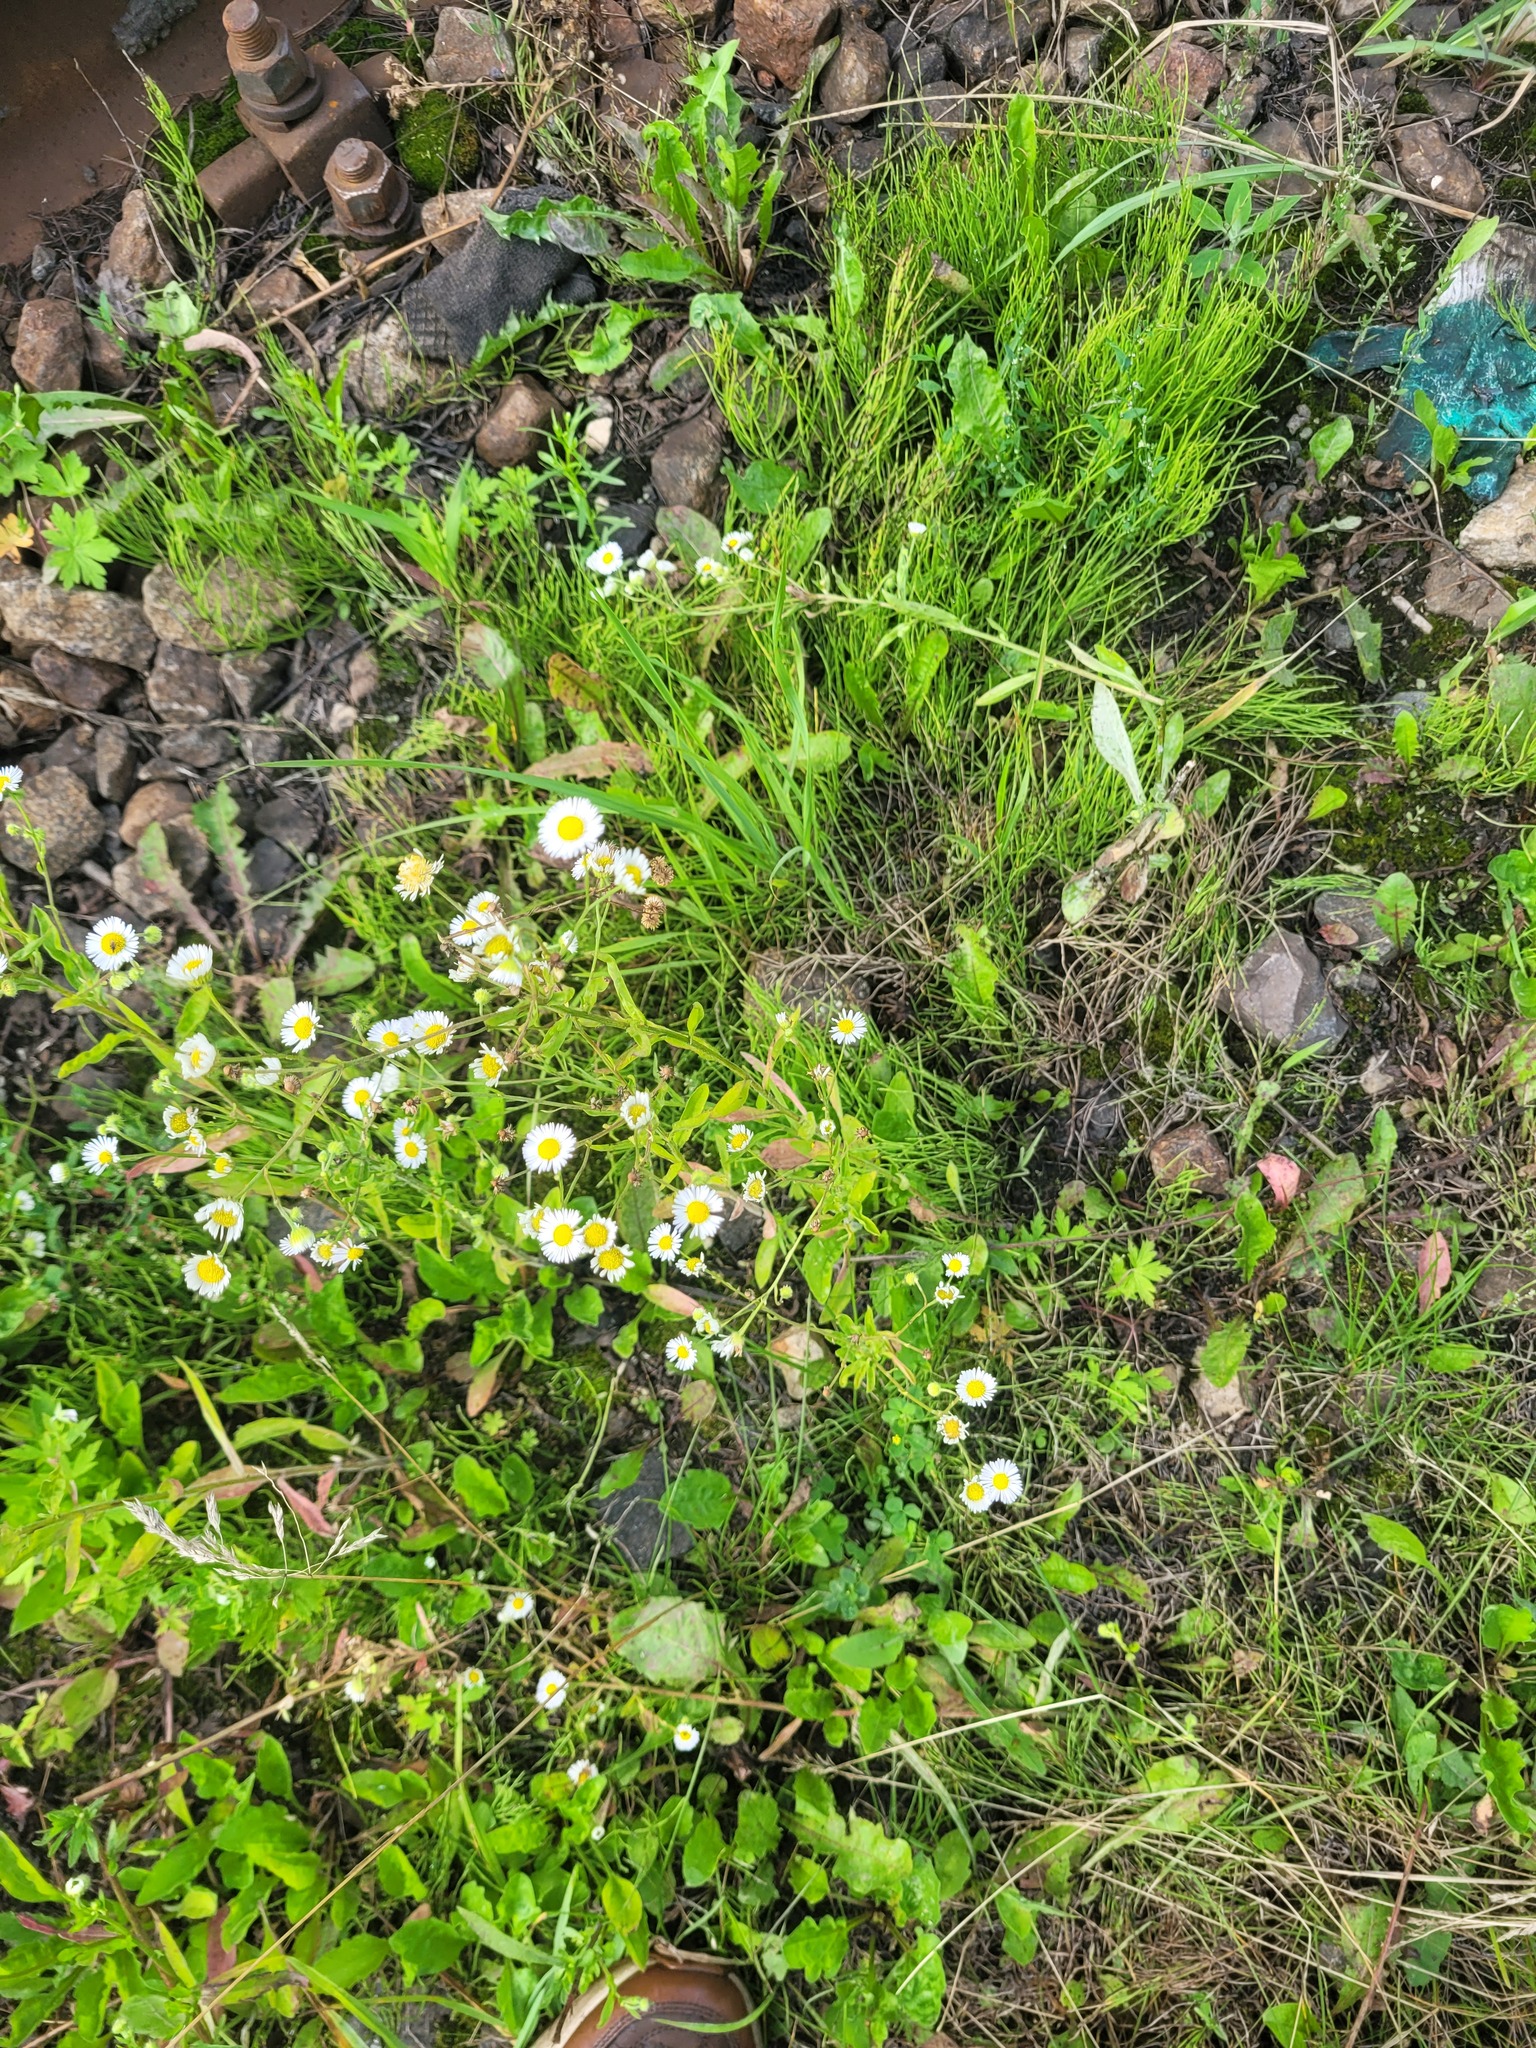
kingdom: Plantae
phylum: Tracheophyta
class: Magnoliopsida
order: Asterales
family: Asteraceae
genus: Erigeron
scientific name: Erigeron annuus
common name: Tall fleabane
